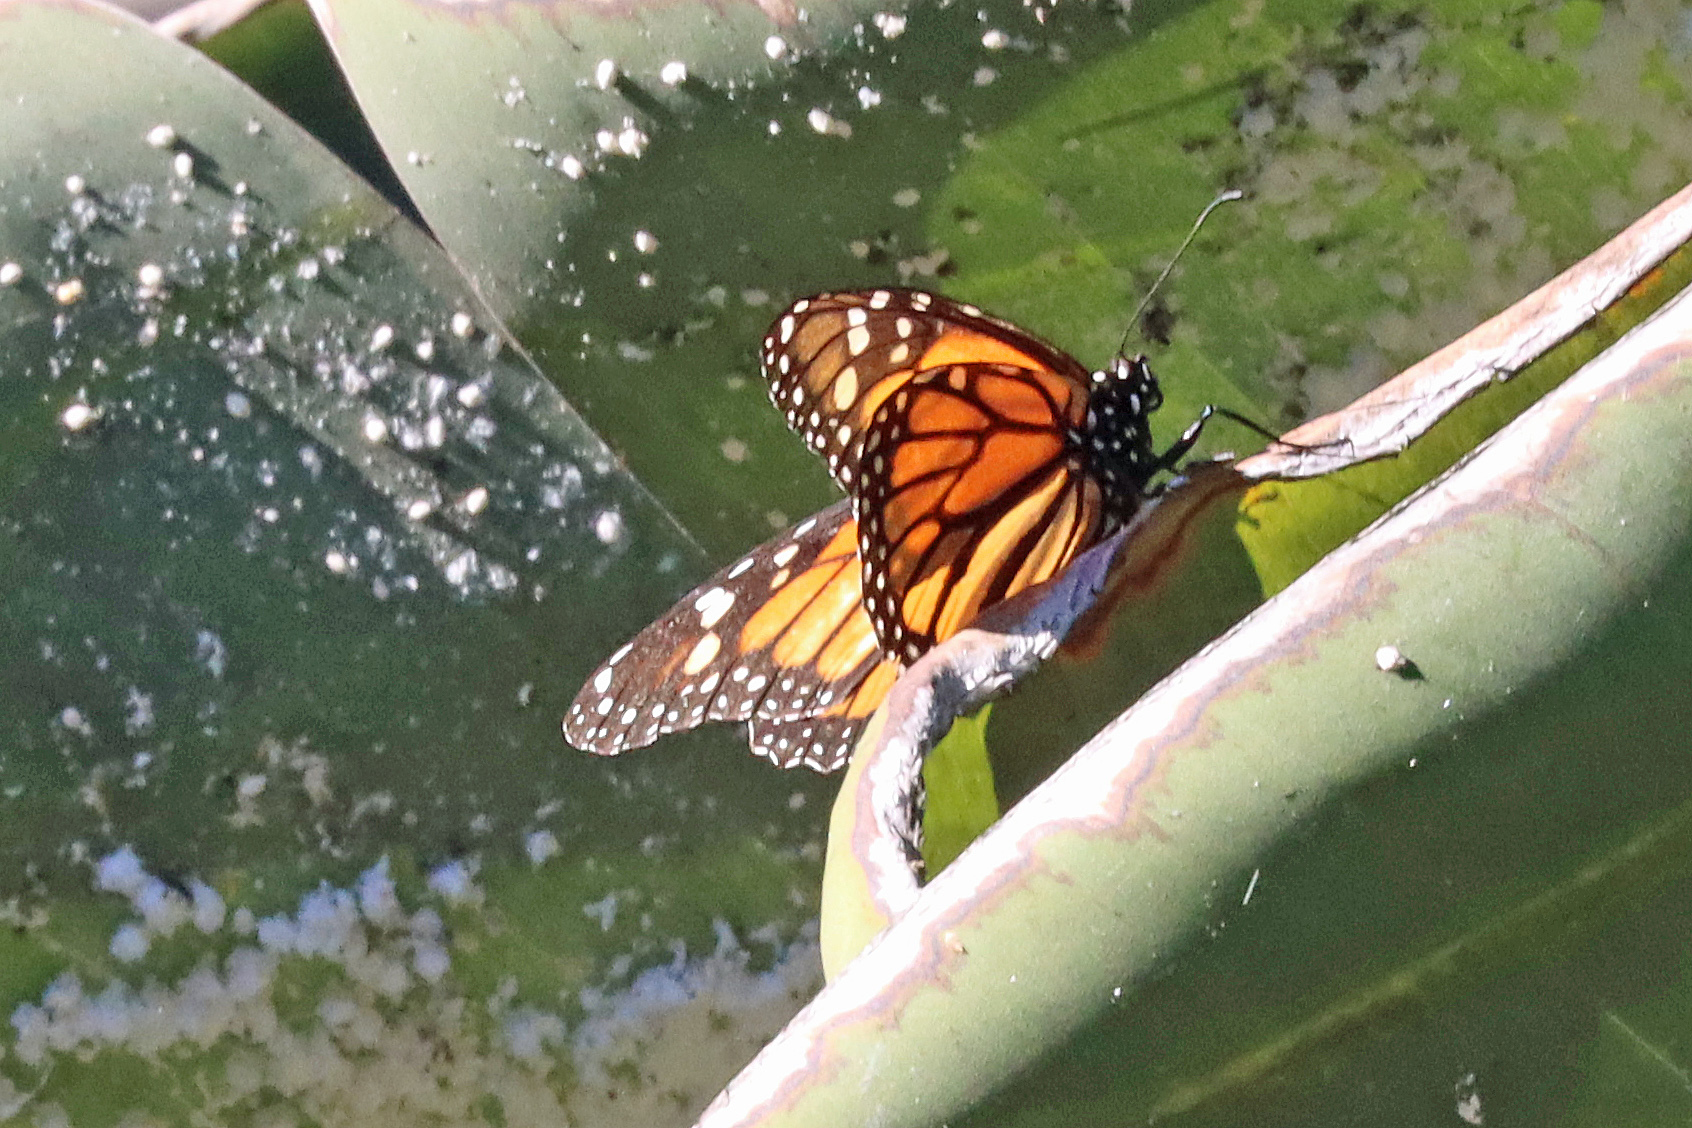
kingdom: Animalia
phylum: Arthropoda
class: Insecta
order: Lepidoptera
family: Nymphalidae
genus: Danaus
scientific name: Danaus plexippus
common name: Monarch
